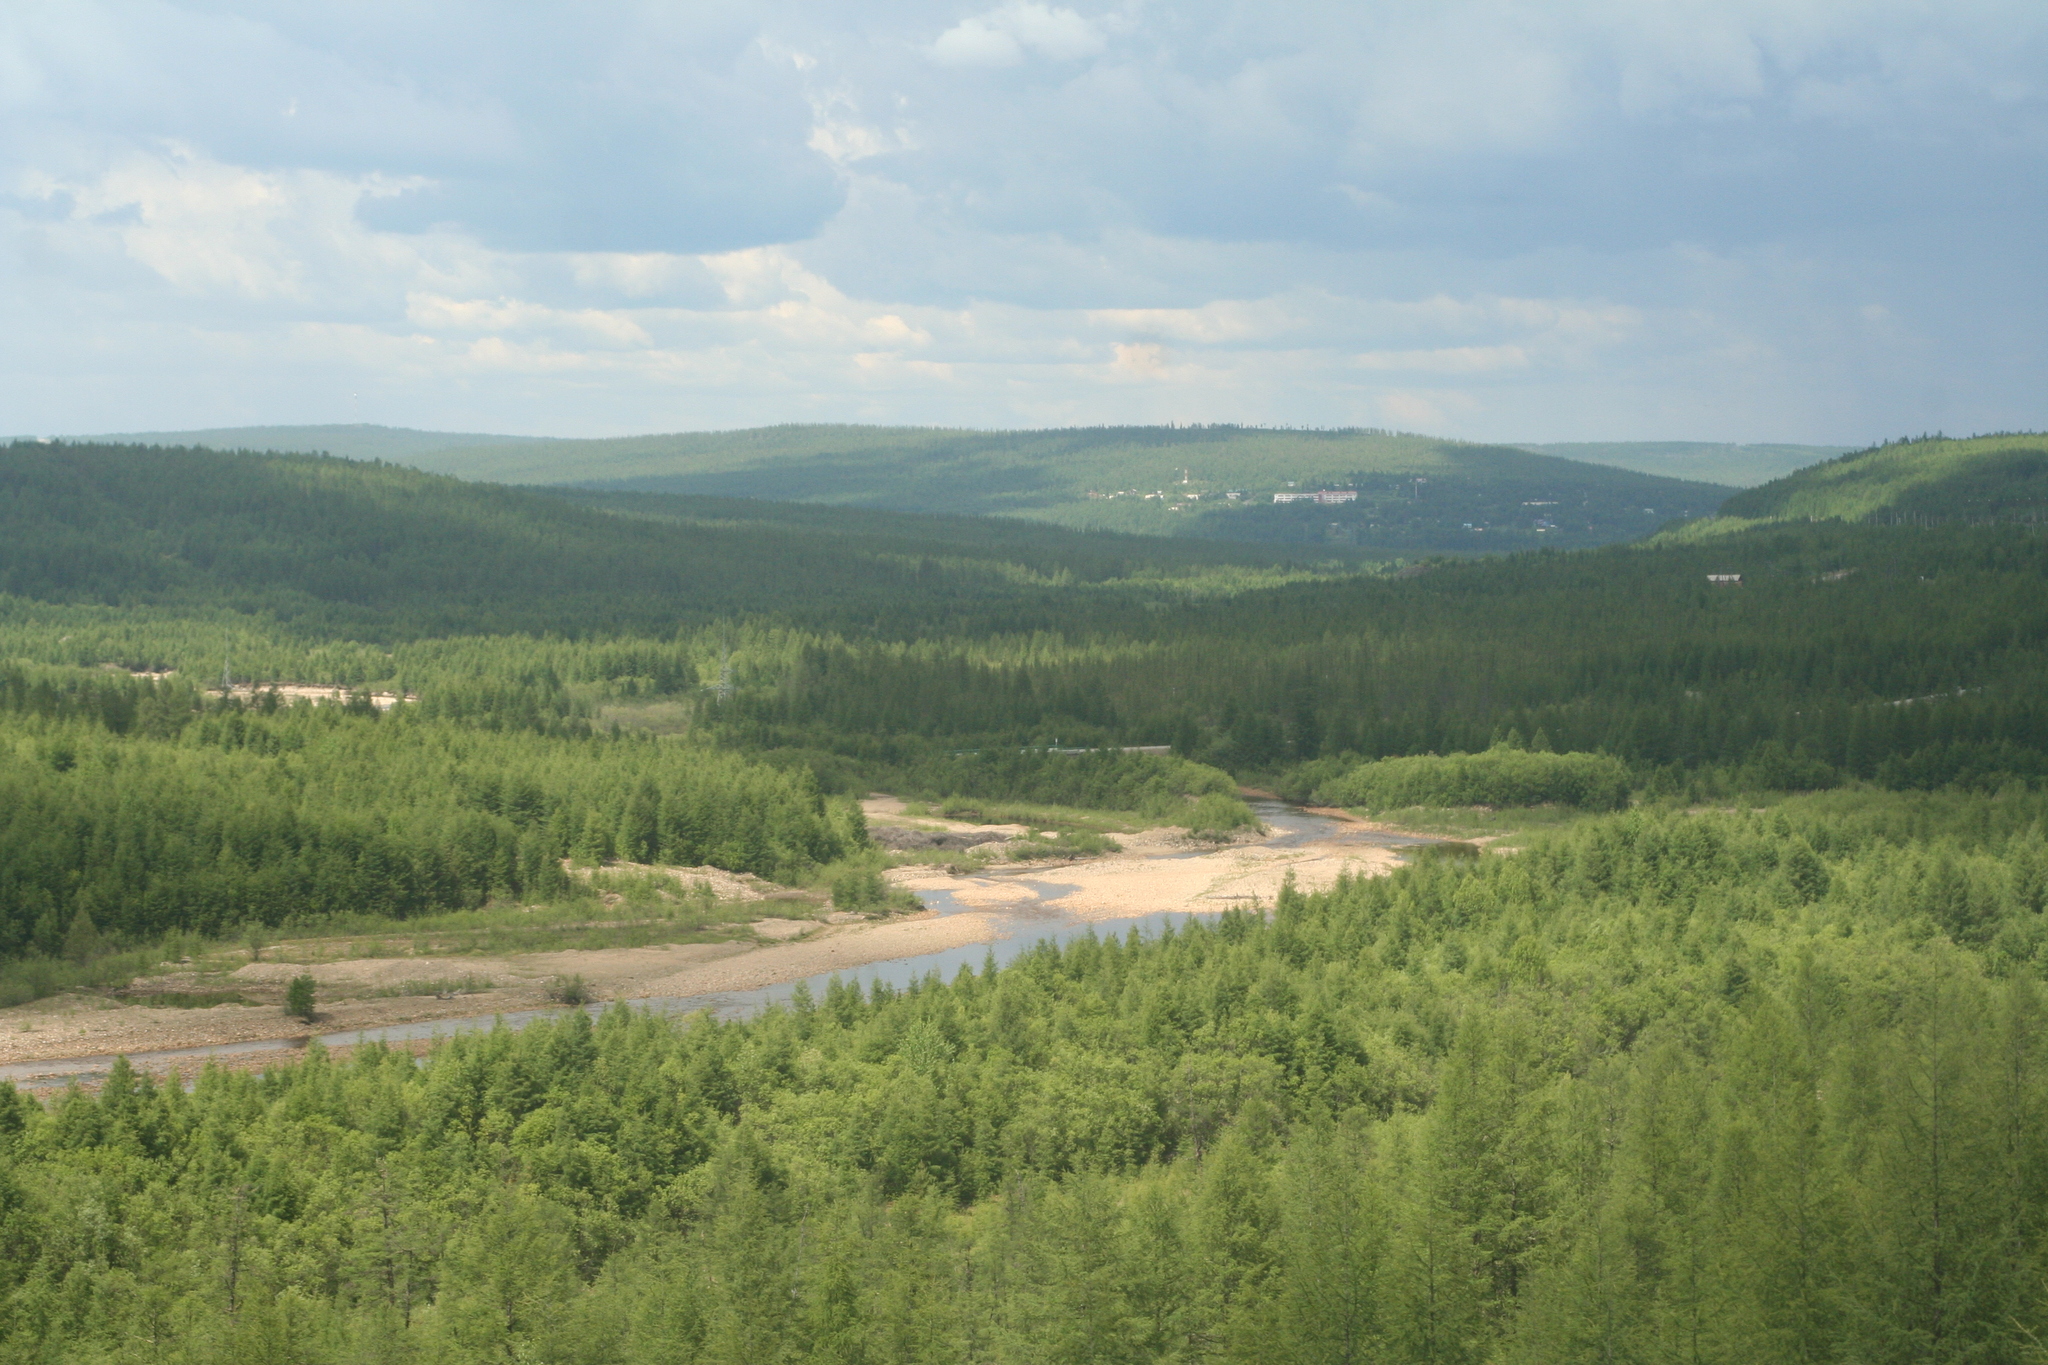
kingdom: Plantae
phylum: Tracheophyta
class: Pinopsida
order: Pinales
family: Pinaceae
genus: Larix
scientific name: Larix gmelinii
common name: Dahurian larch
